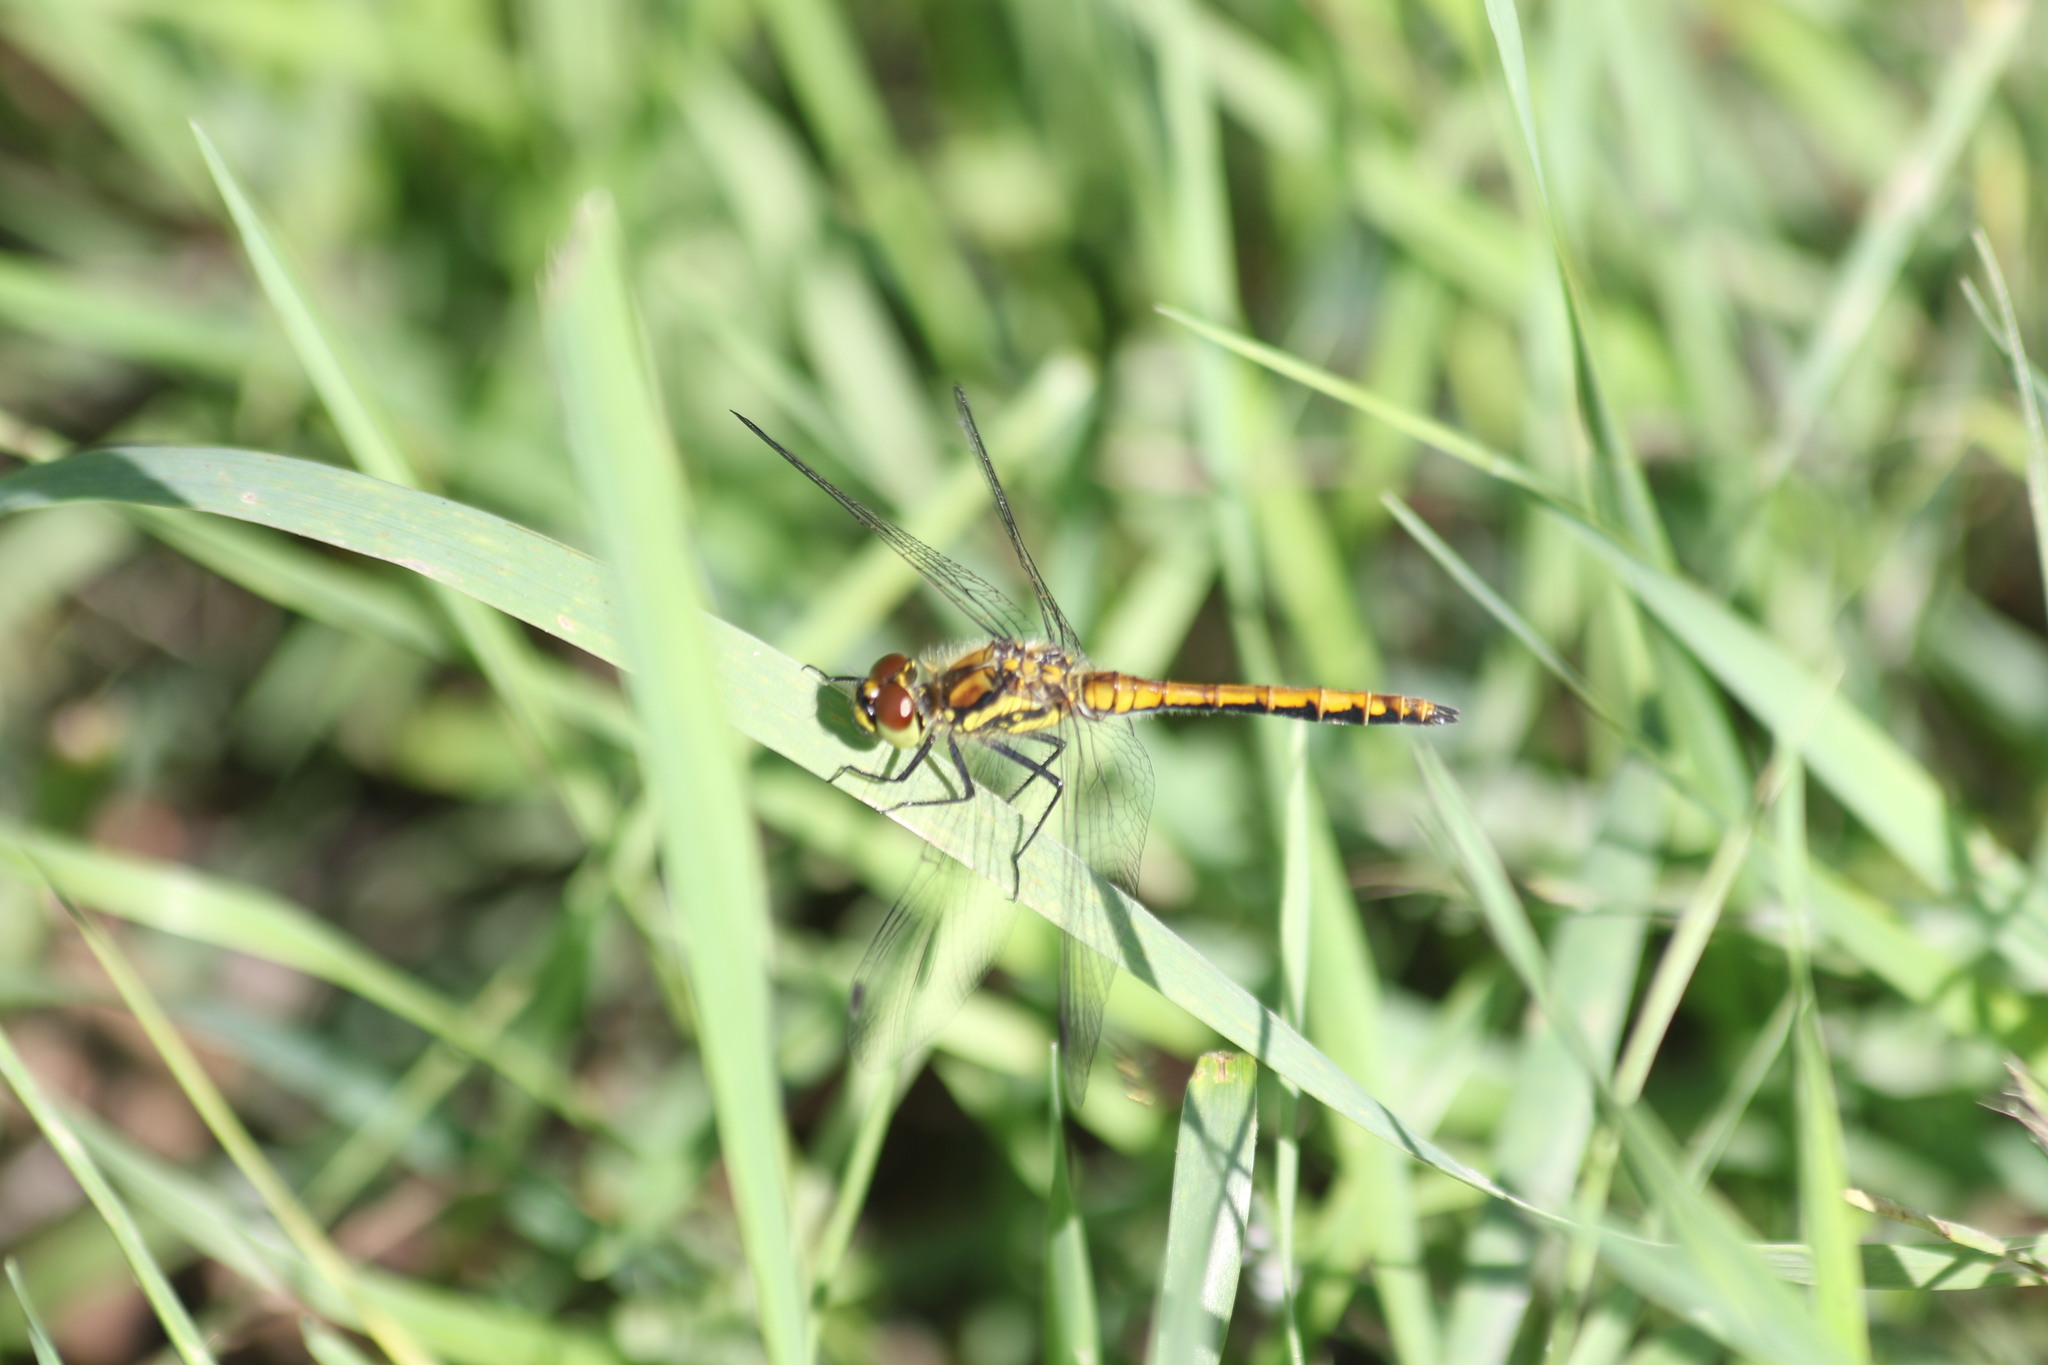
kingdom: Animalia
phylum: Arthropoda
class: Insecta
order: Odonata
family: Libellulidae
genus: Sympetrum
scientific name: Sympetrum danae
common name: Black darter
